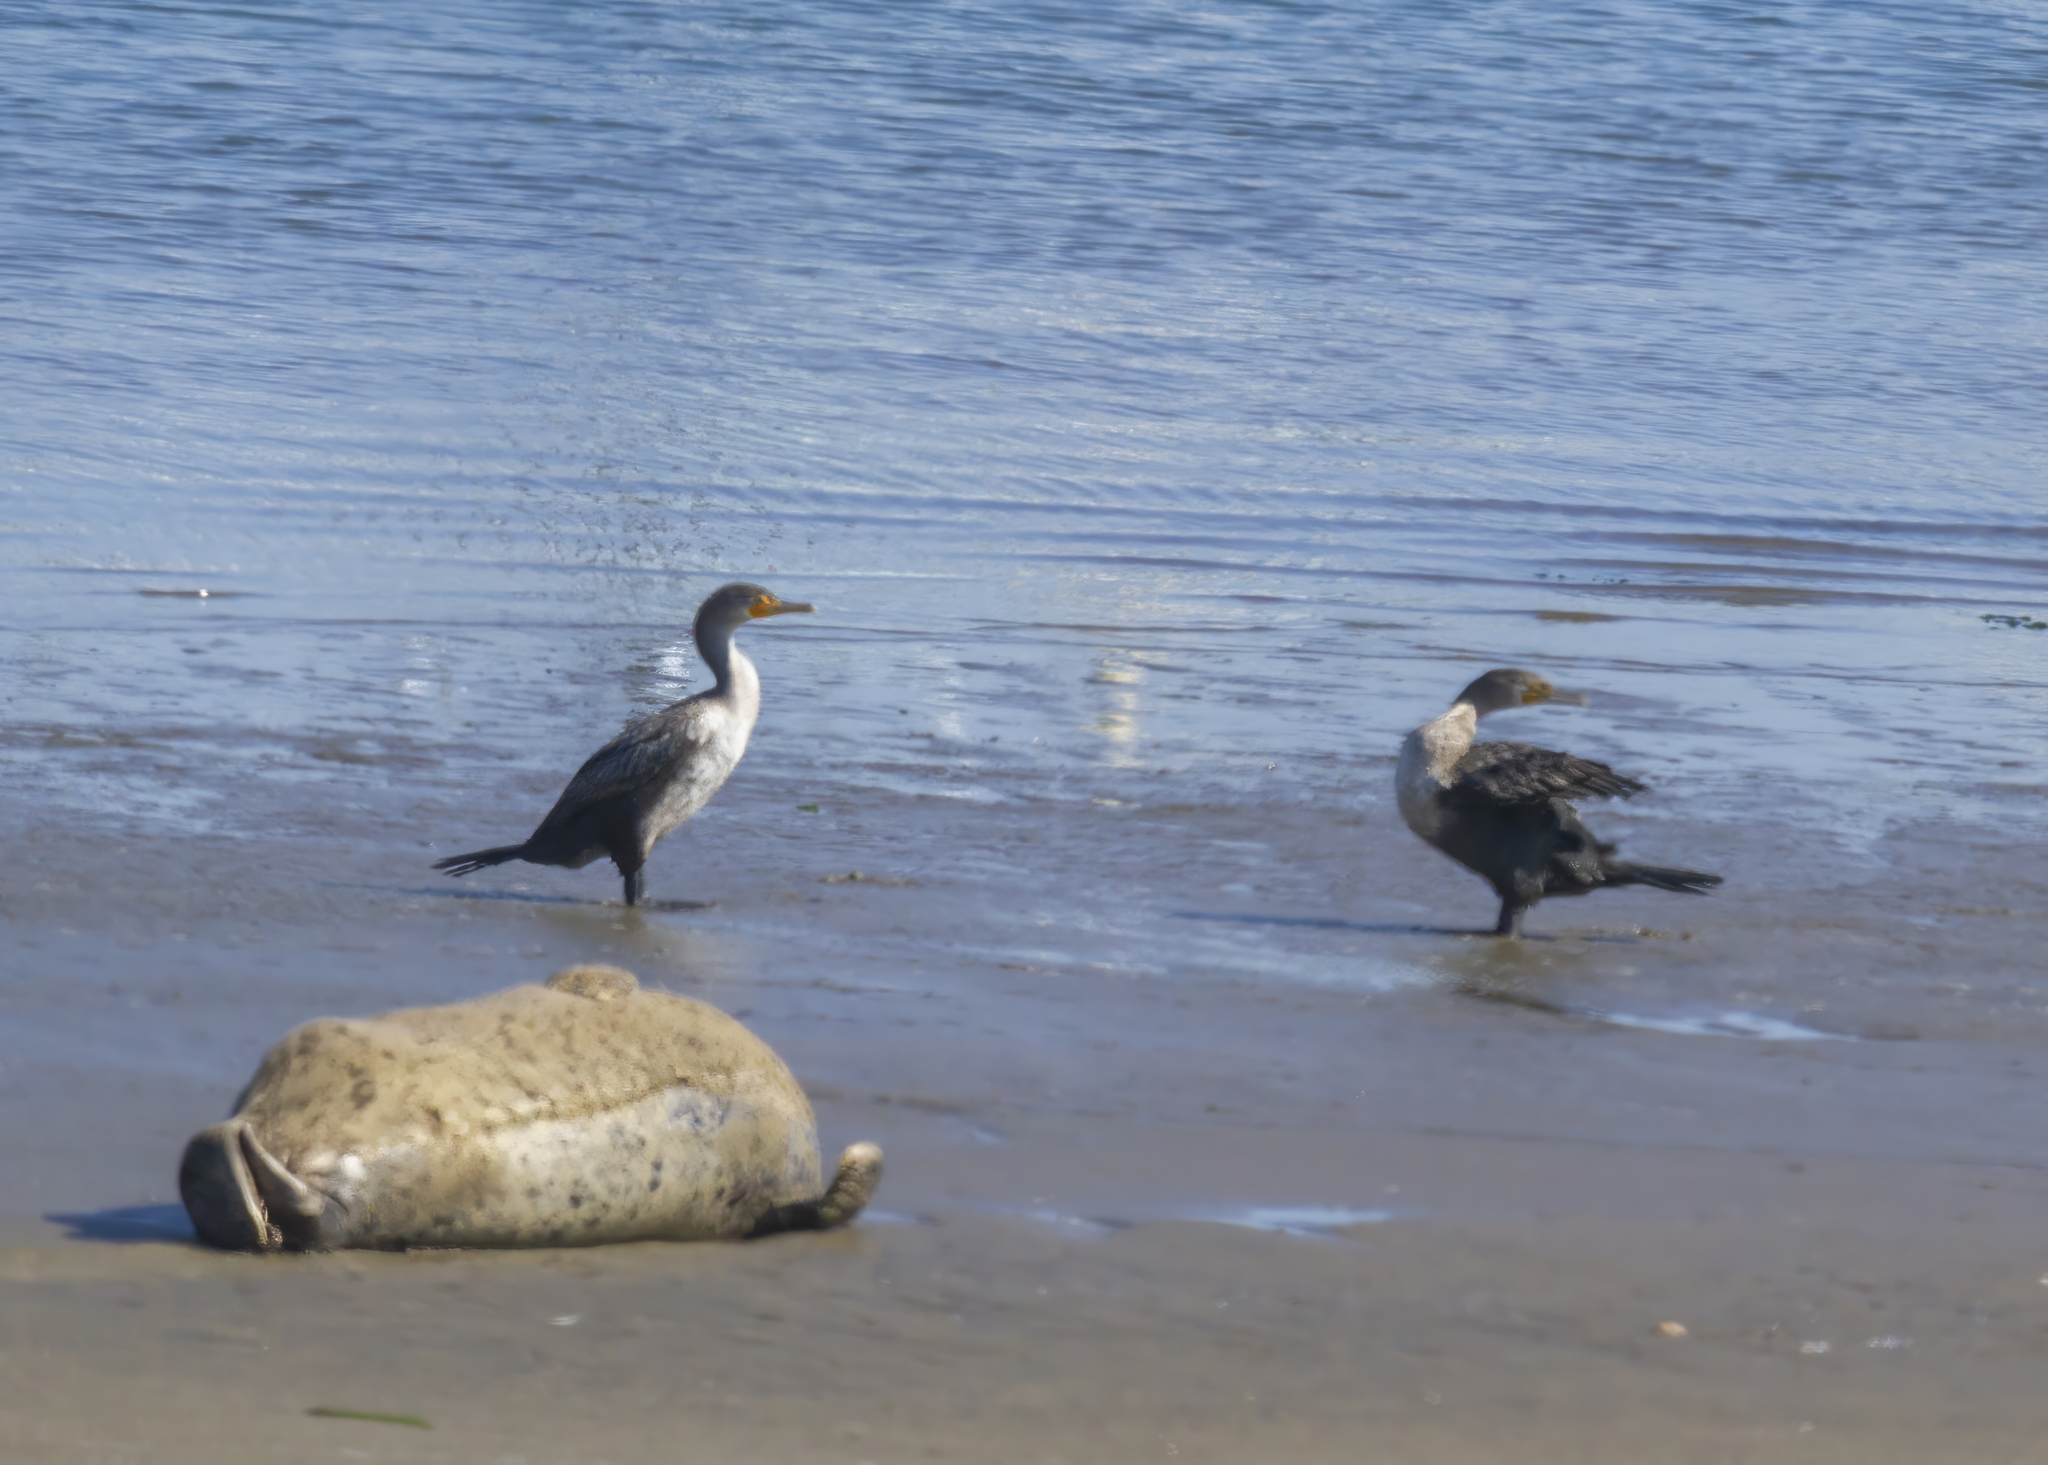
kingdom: Animalia
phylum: Chordata
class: Aves
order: Suliformes
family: Phalacrocoracidae
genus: Phalacrocorax
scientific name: Phalacrocorax auritus
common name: Double-crested cormorant
